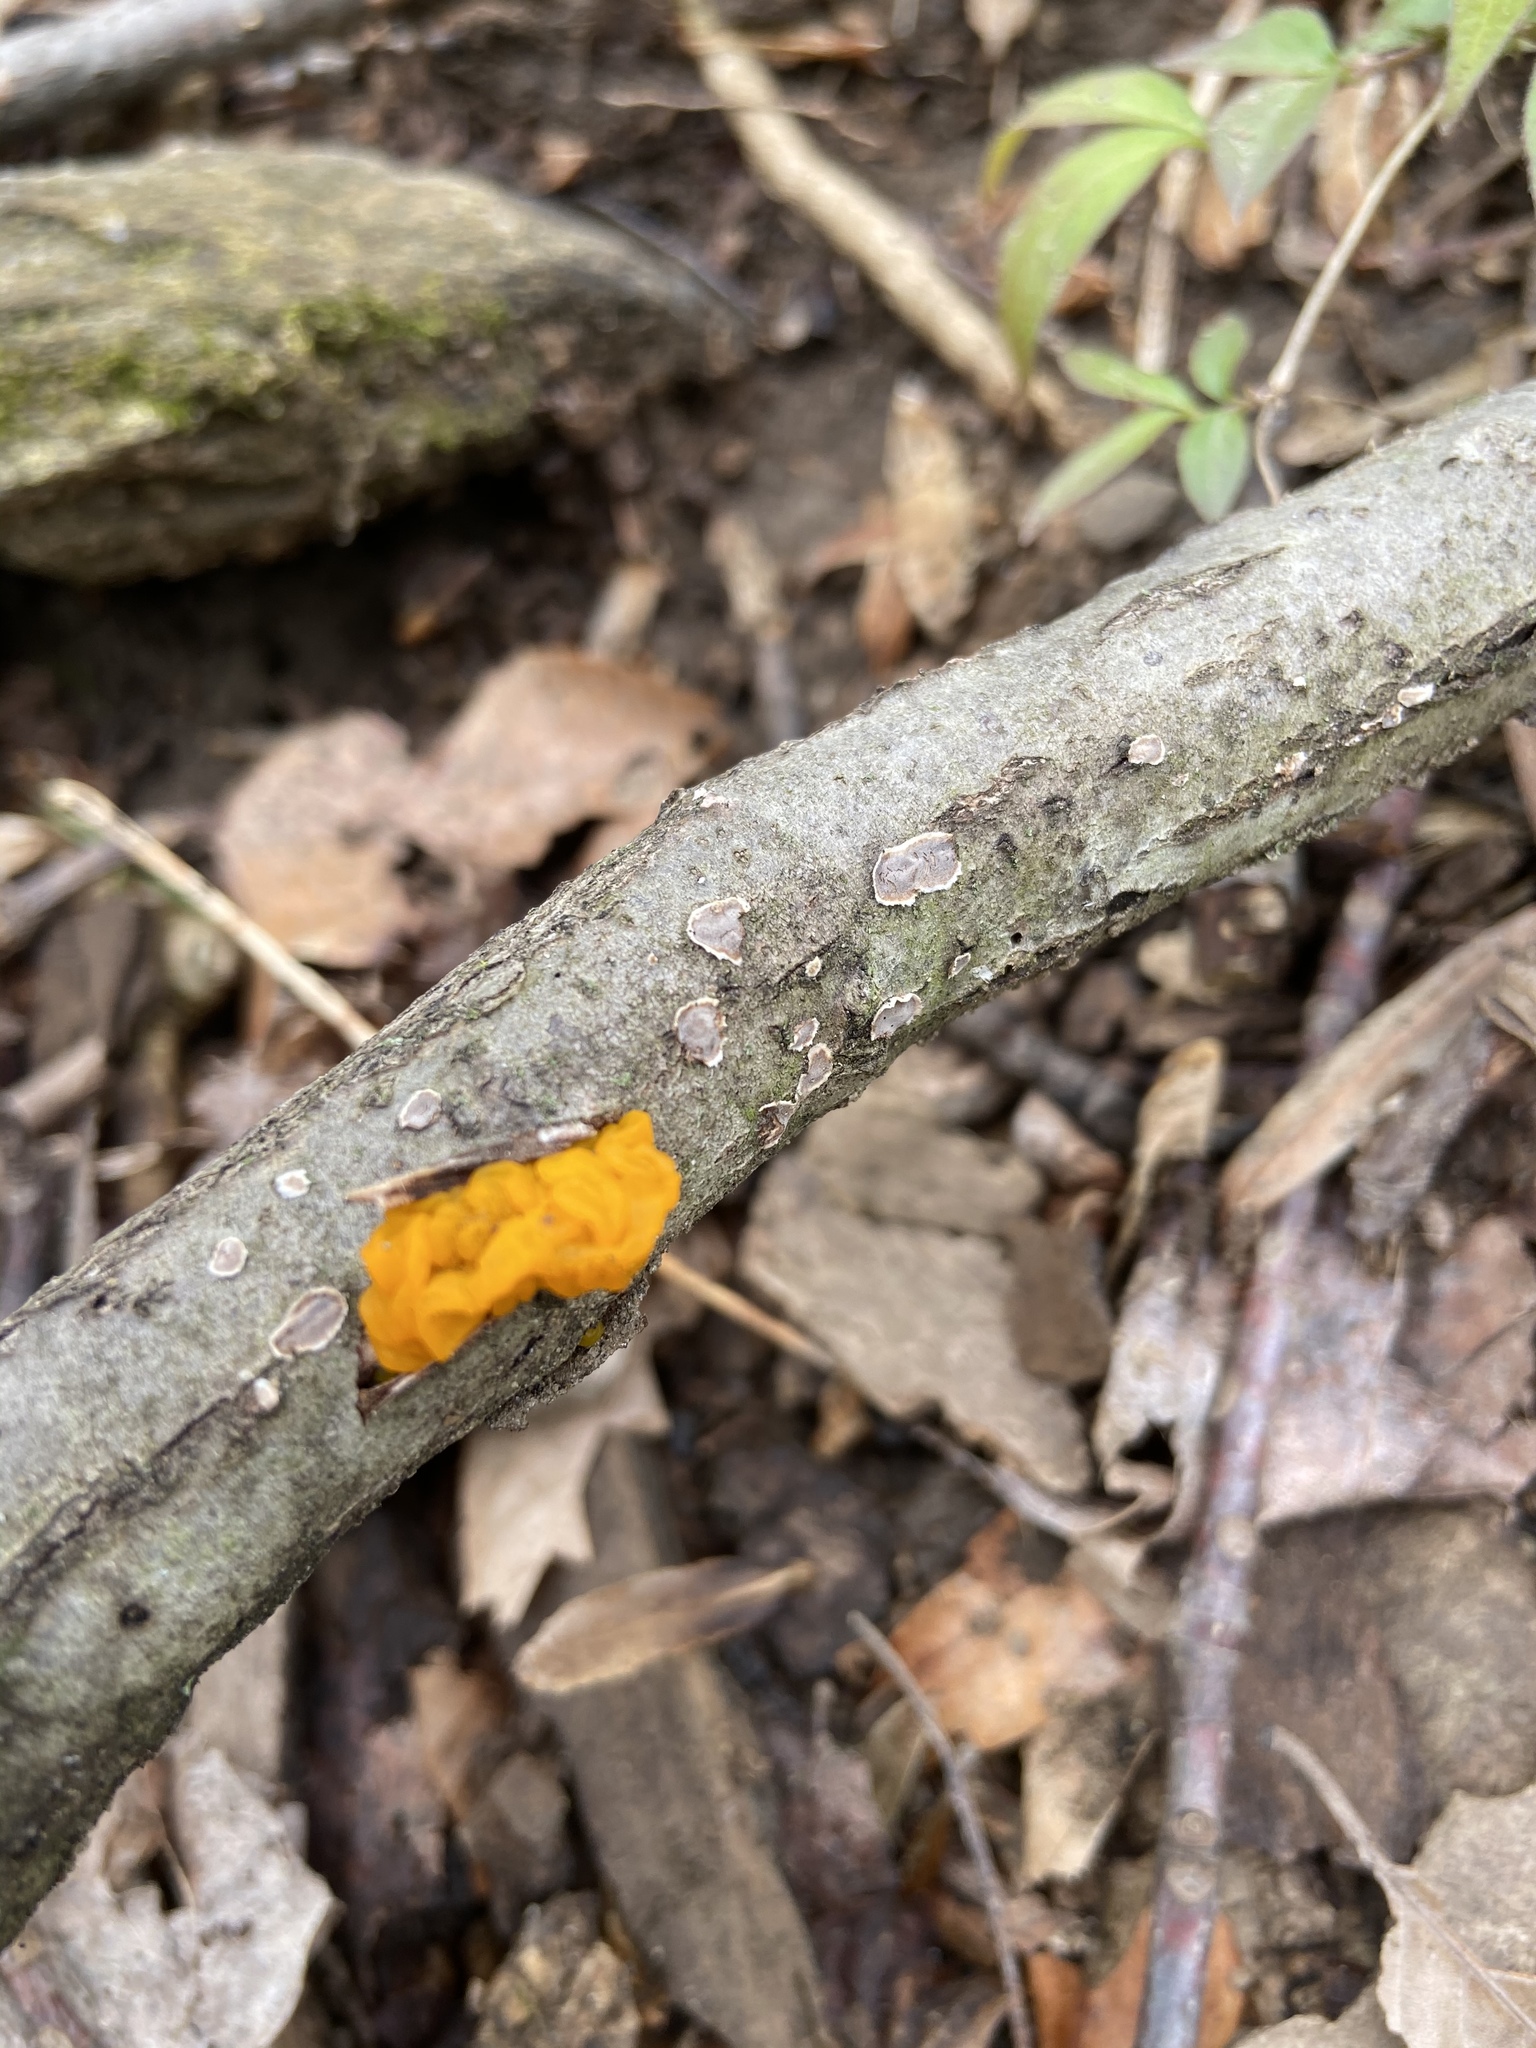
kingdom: Fungi
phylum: Basidiomycota
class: Tremellomycetes
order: Tremellales
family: Tremellaceae
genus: Tremella
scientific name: Tremella mesenterica
